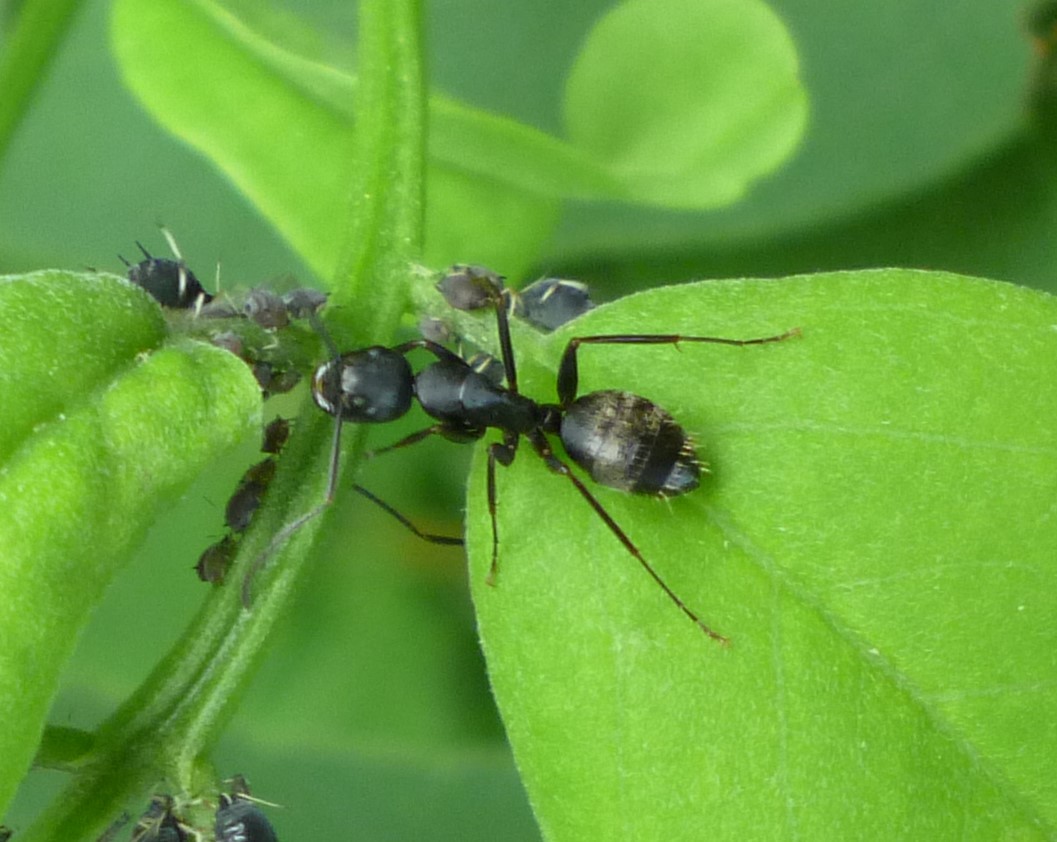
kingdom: Animalia
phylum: Arthropoda
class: Insecta
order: Hymenoptera
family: Formicidae
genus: Camponotus
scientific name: Camponotus pennsylvanicus
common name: Black carpenter ant
